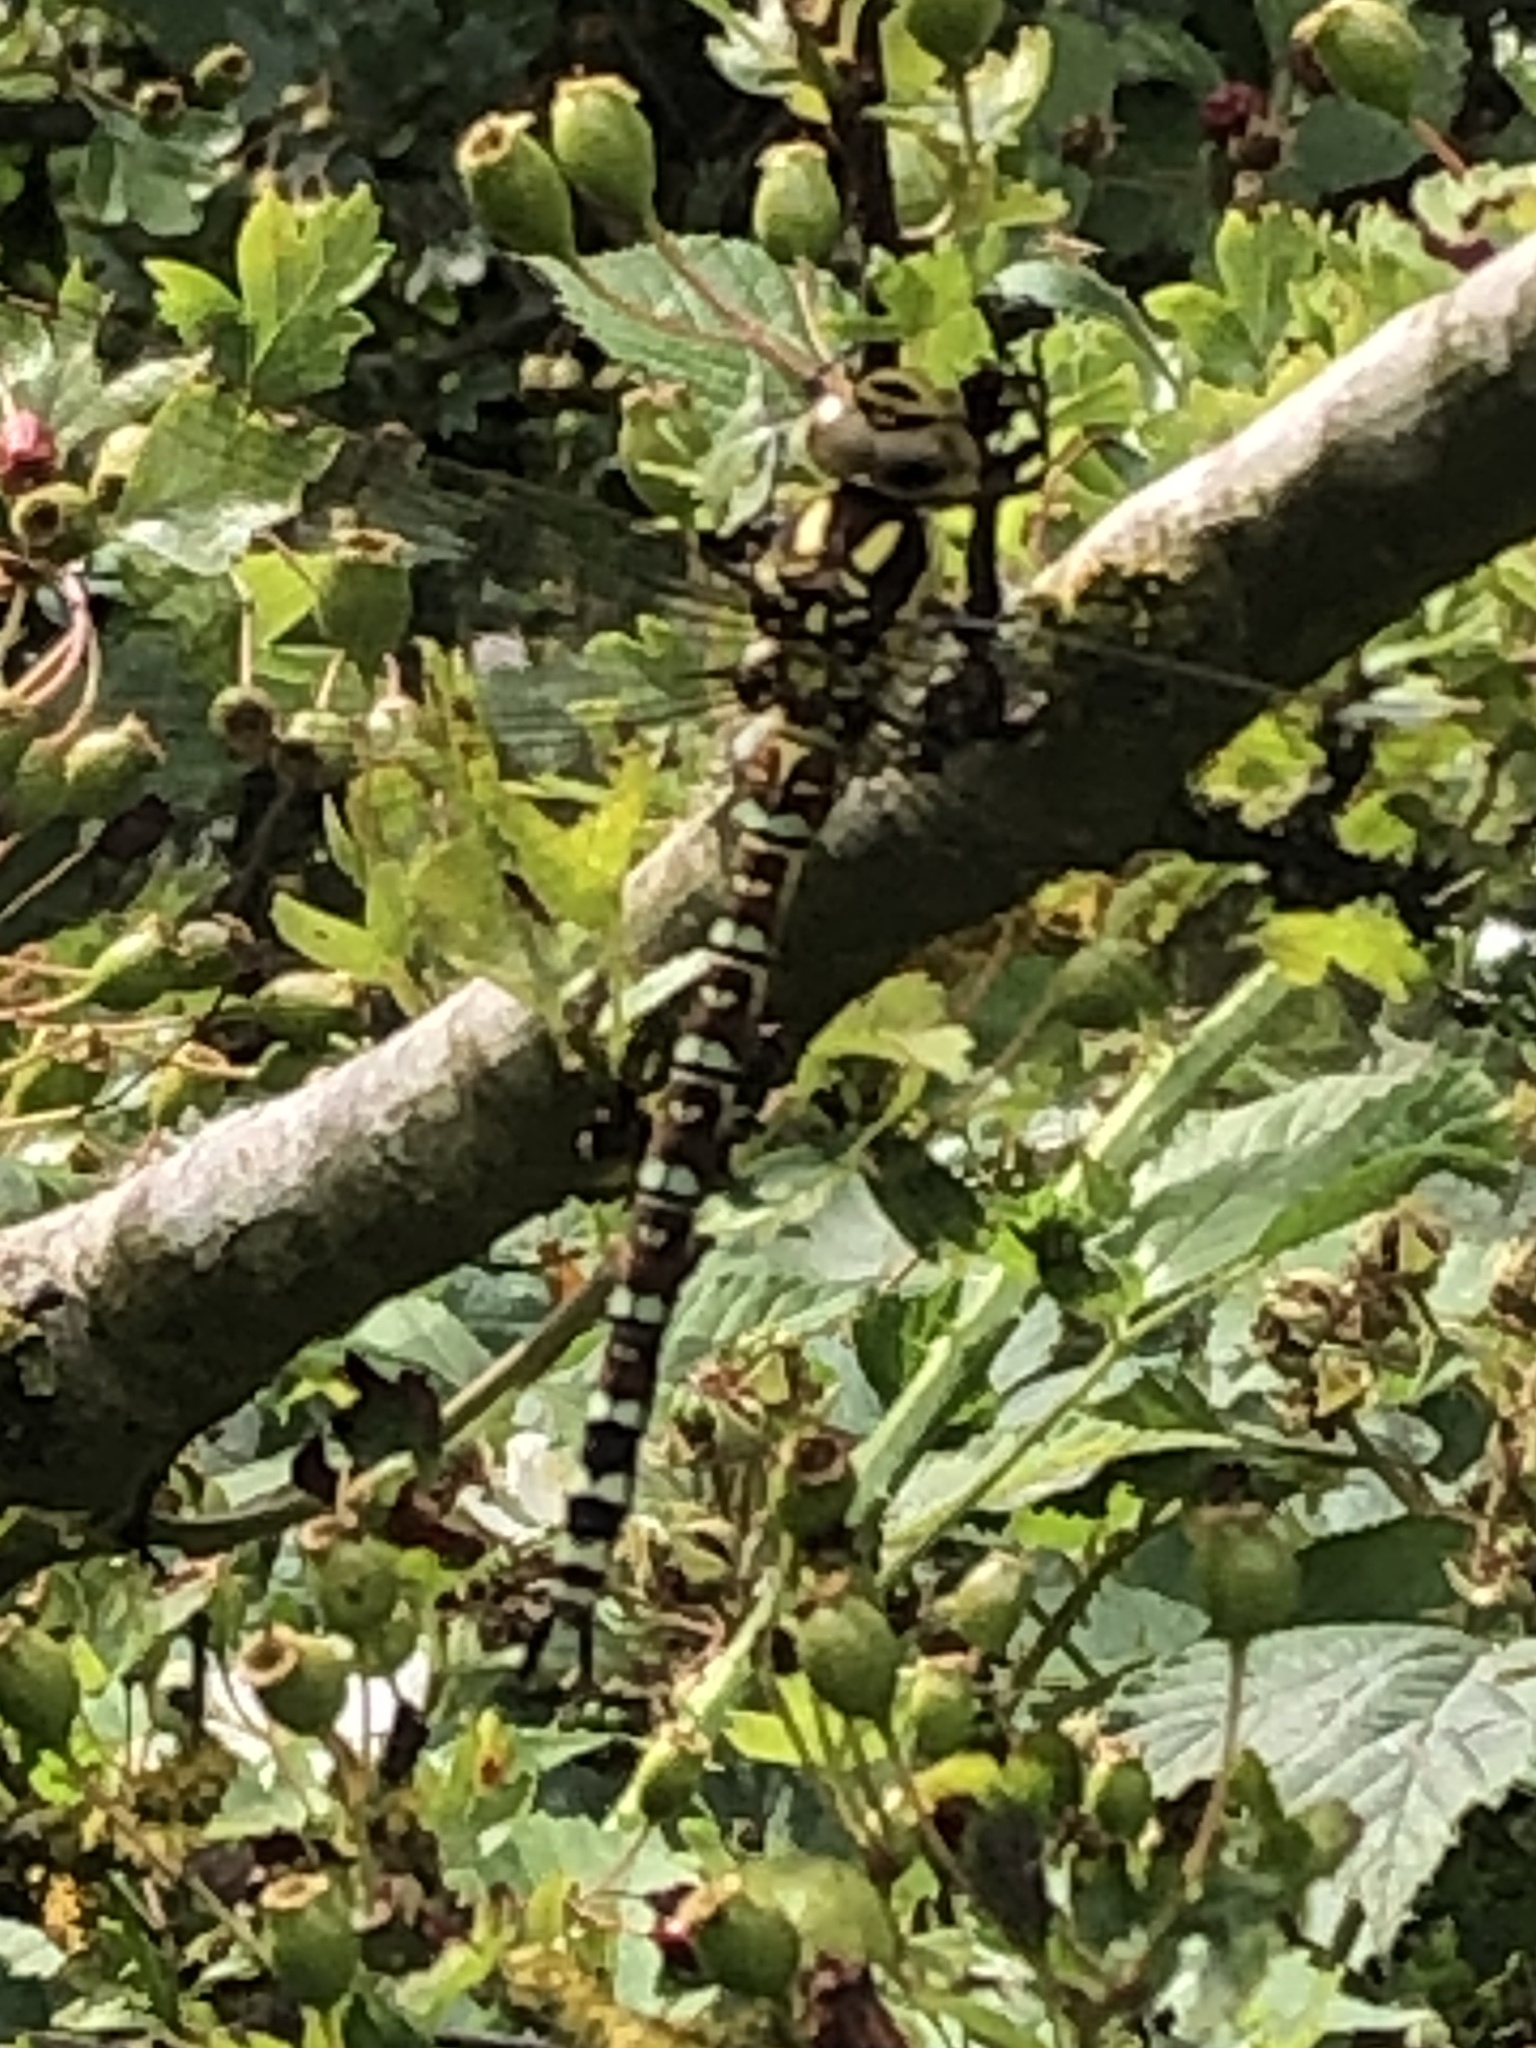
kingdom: Animalia
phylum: Arthropoda
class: Insecta
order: Odonata
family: Aeshnidae
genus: Aeshna
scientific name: Aeshna cyanea
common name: Southern hawker
